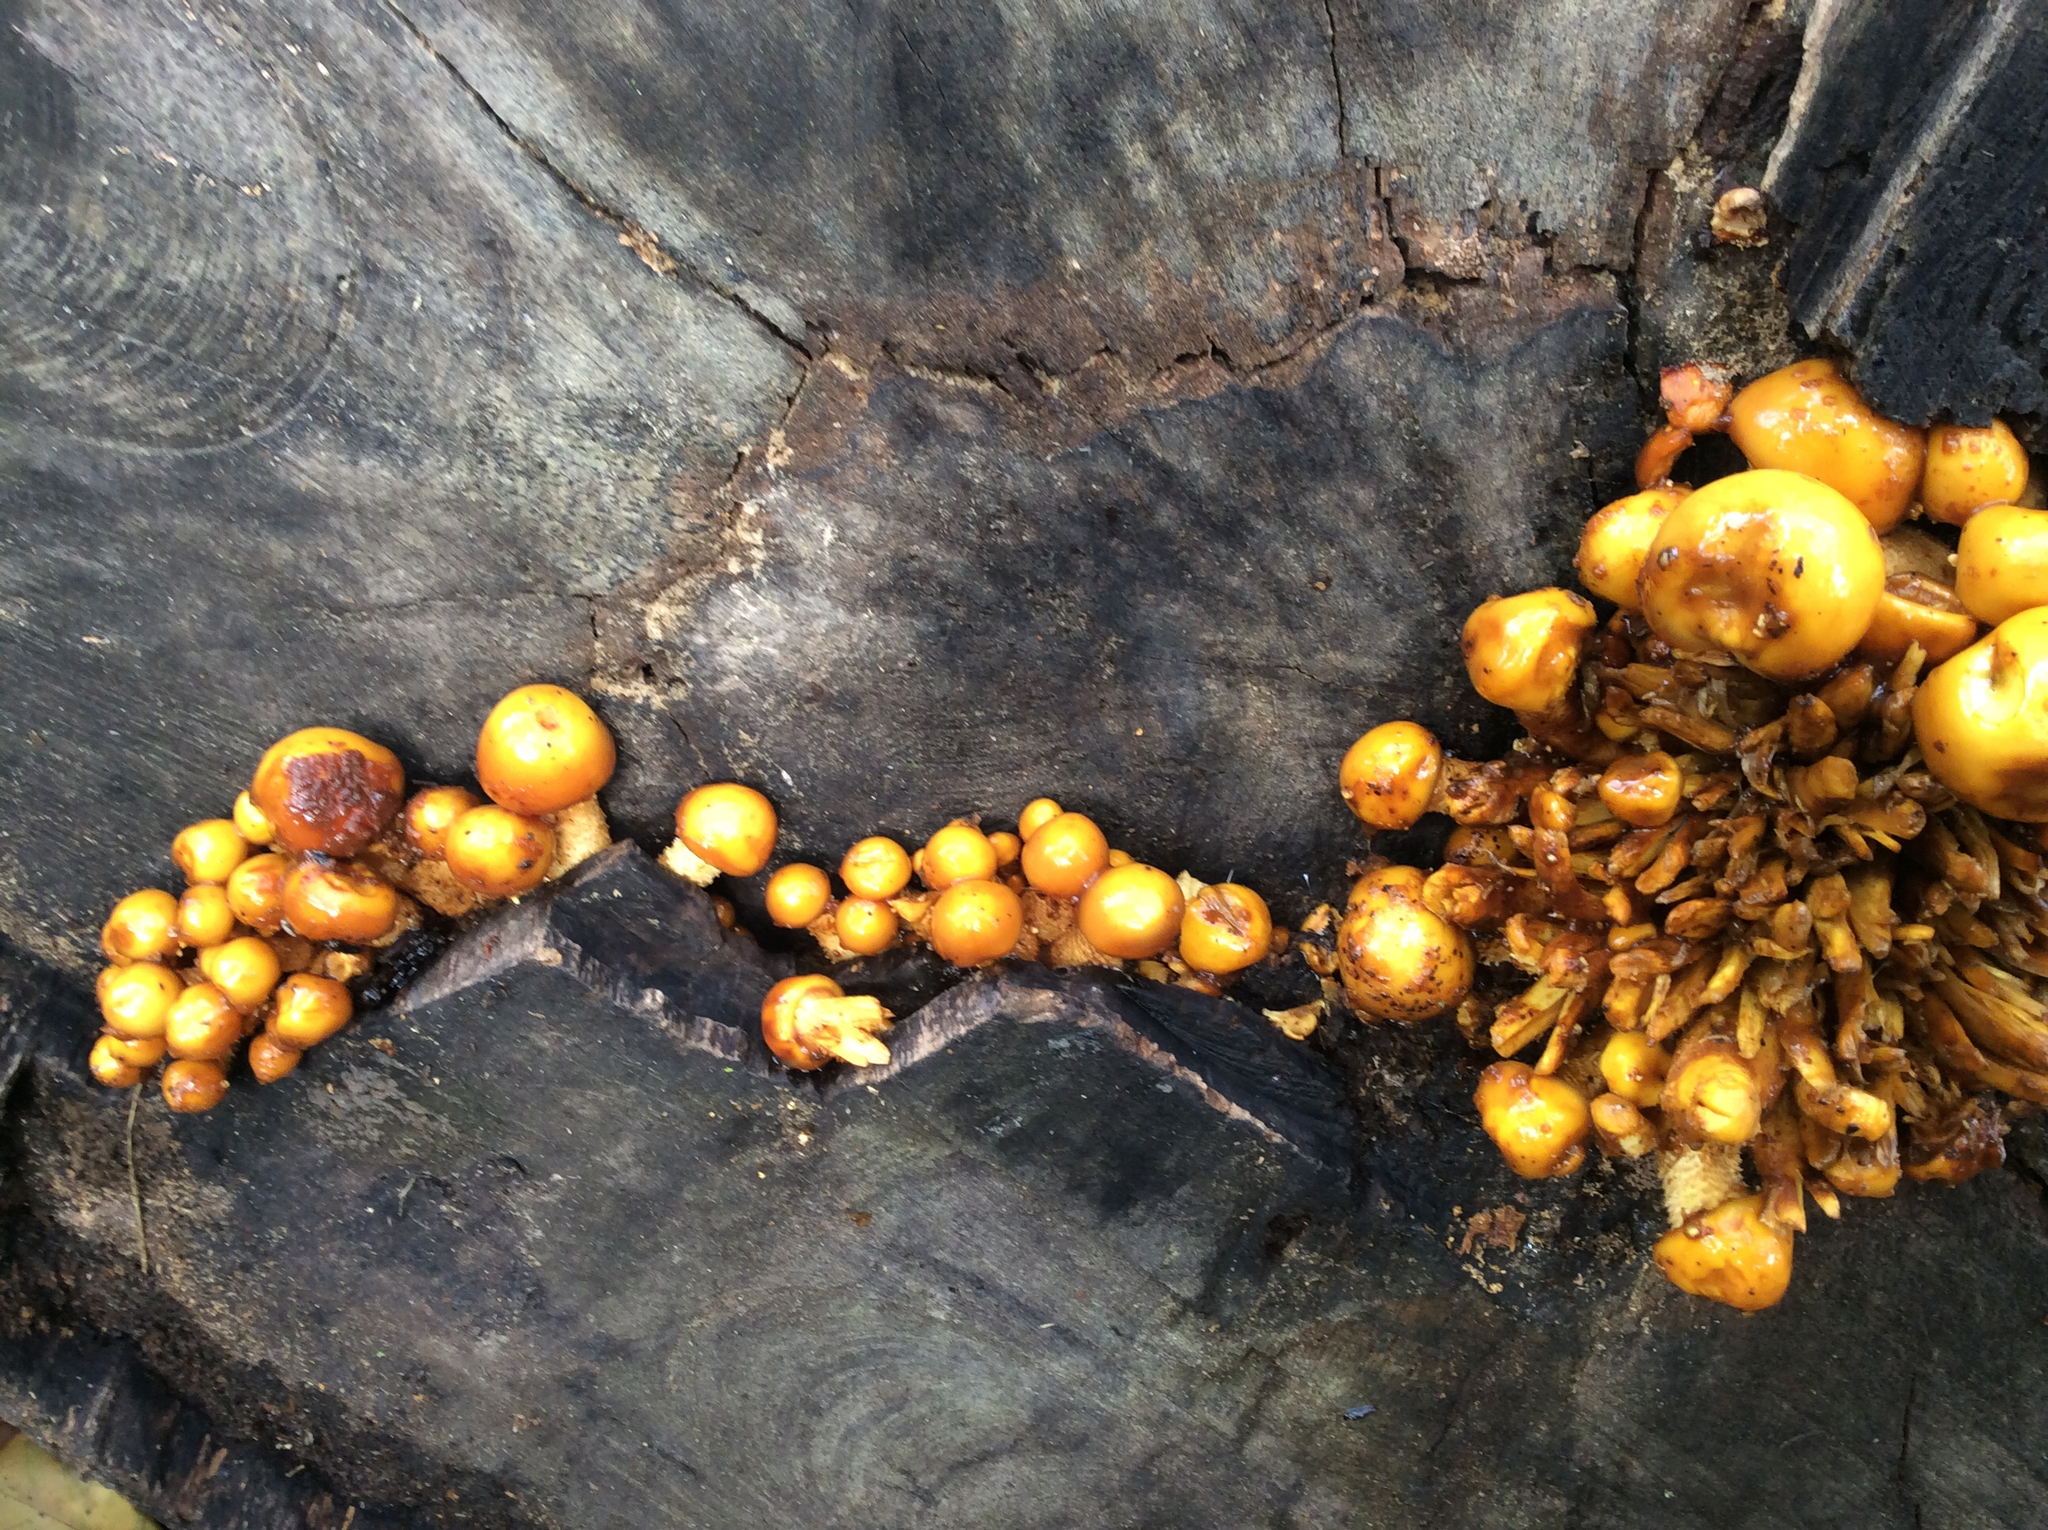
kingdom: Fungi
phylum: Basidiomycota
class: Agaricomycetes
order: Agaricales
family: Physalacriaceae
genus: Flammulina
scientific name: Flammulina
